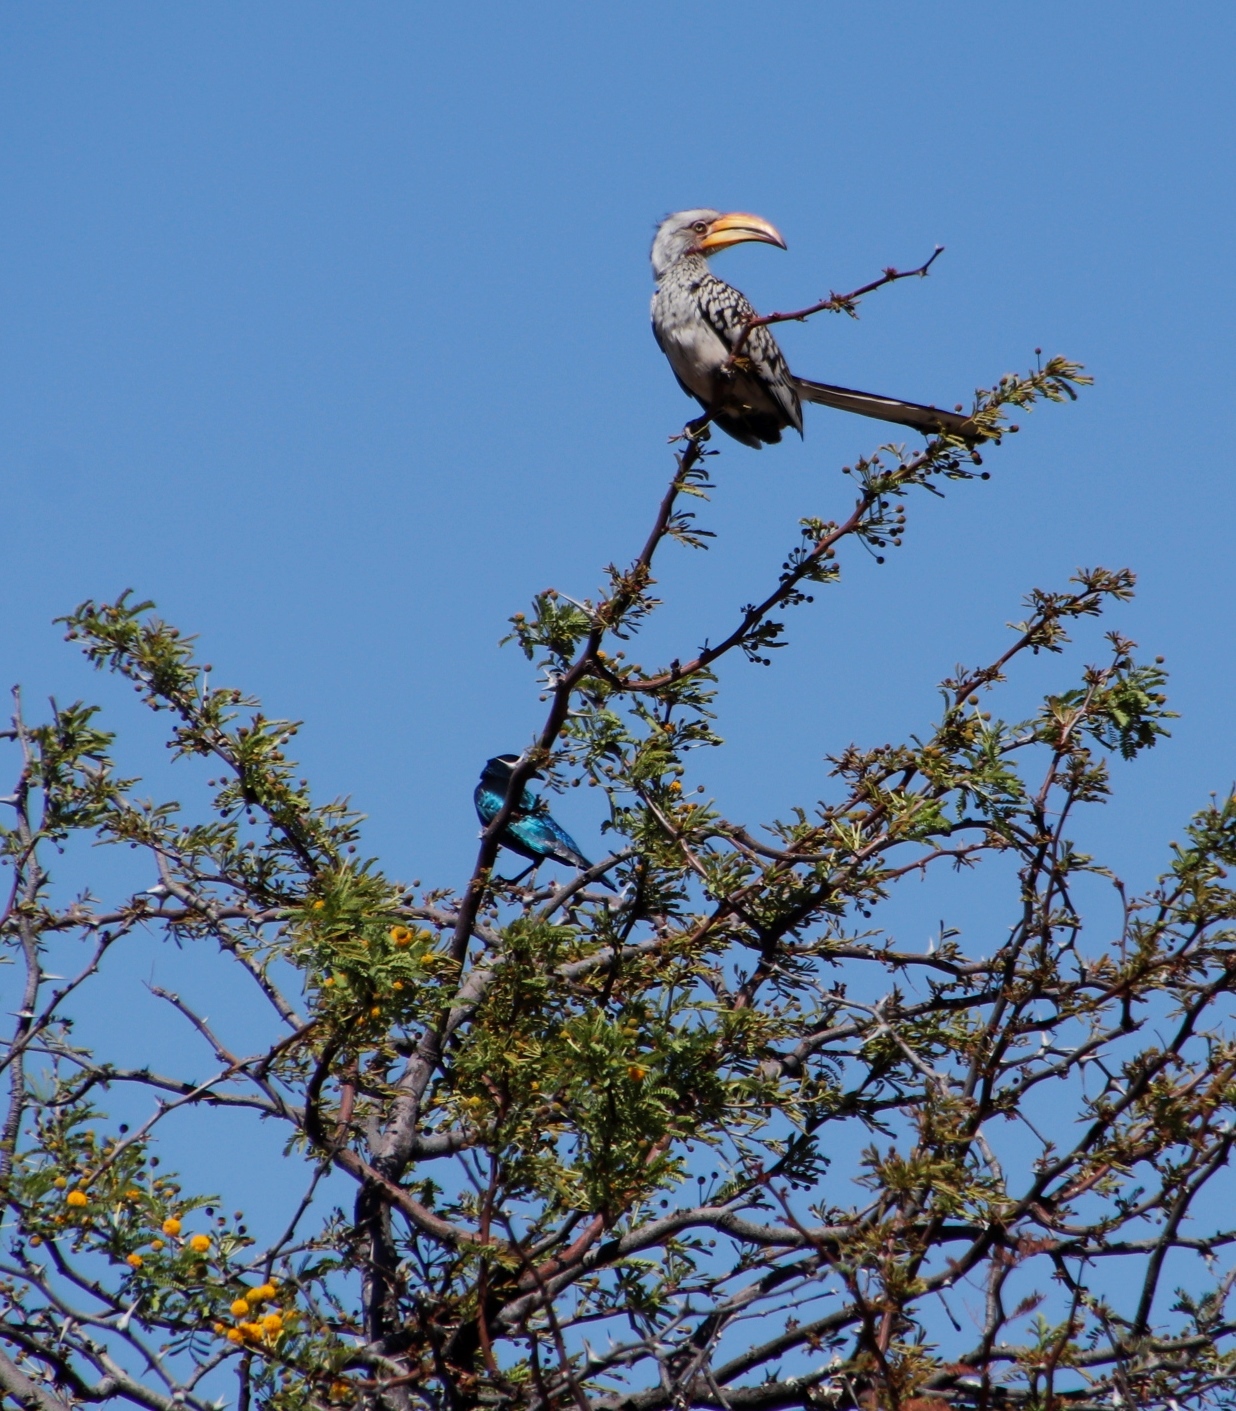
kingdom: Animalia
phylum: Chordata
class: Aves
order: Bucerotiformes
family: Bucerotidae
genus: Tockus
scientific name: Tockus leucomelas
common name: Southern yellow-billed hornbill
